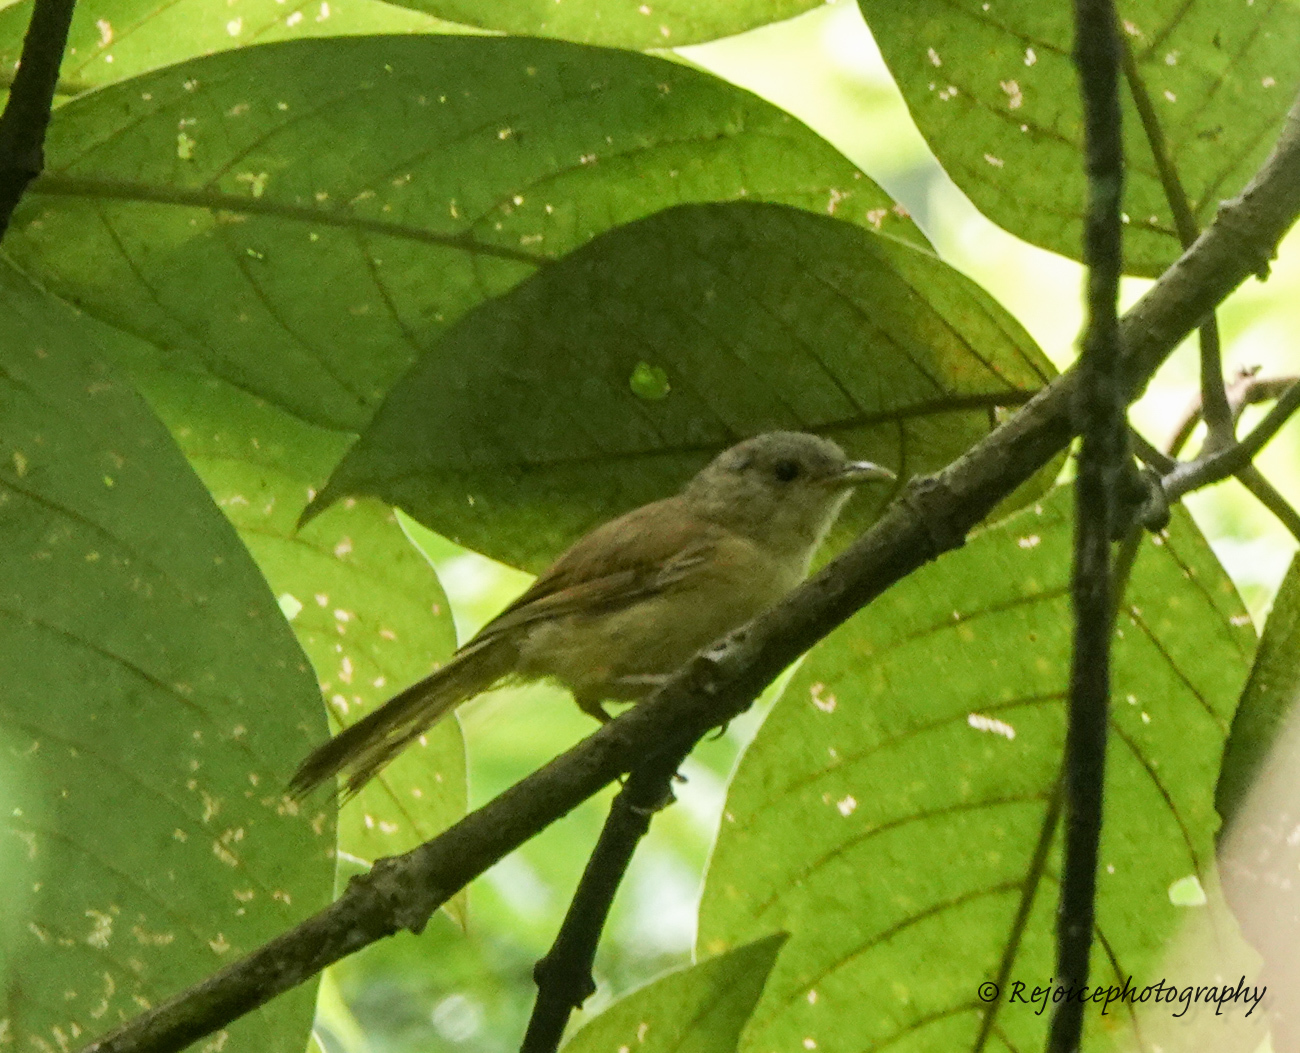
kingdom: Animalia
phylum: Chordata
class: Aves
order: Passeriformes
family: Pellorneidae
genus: Alcippe
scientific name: Alcippe poioicephala
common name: Brown-cheeked fulvetta
